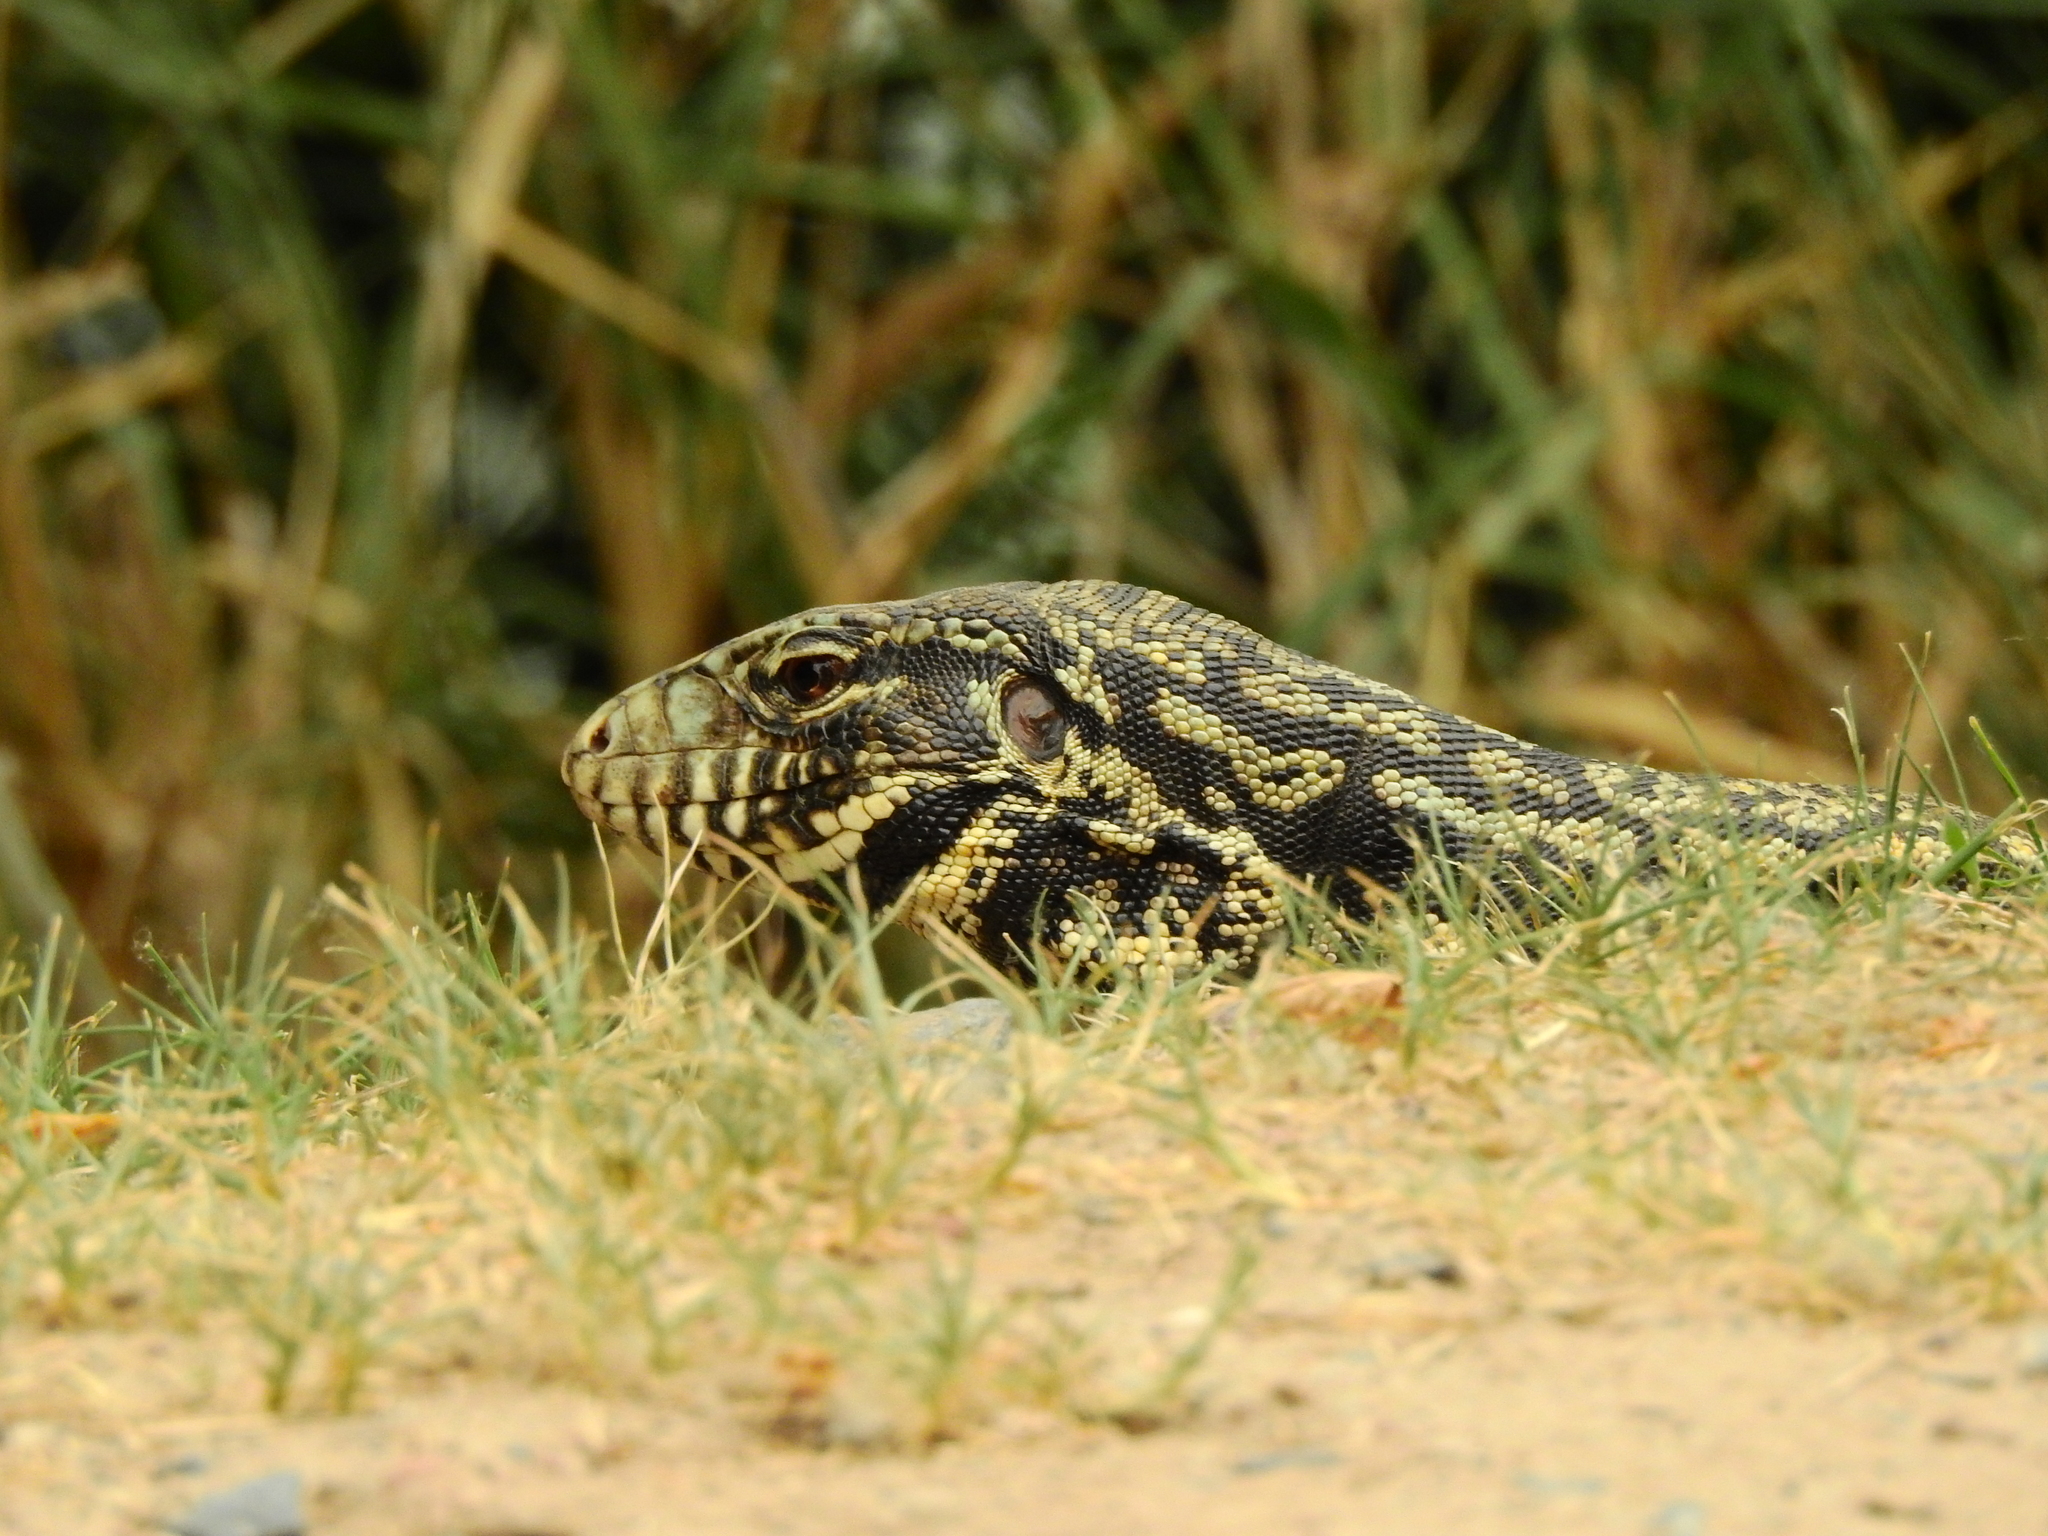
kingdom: Animalia
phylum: Chordata
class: Squamata
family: Teiidae
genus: Salvator
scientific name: Salvator merianae
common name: Argentine black and white tegu
